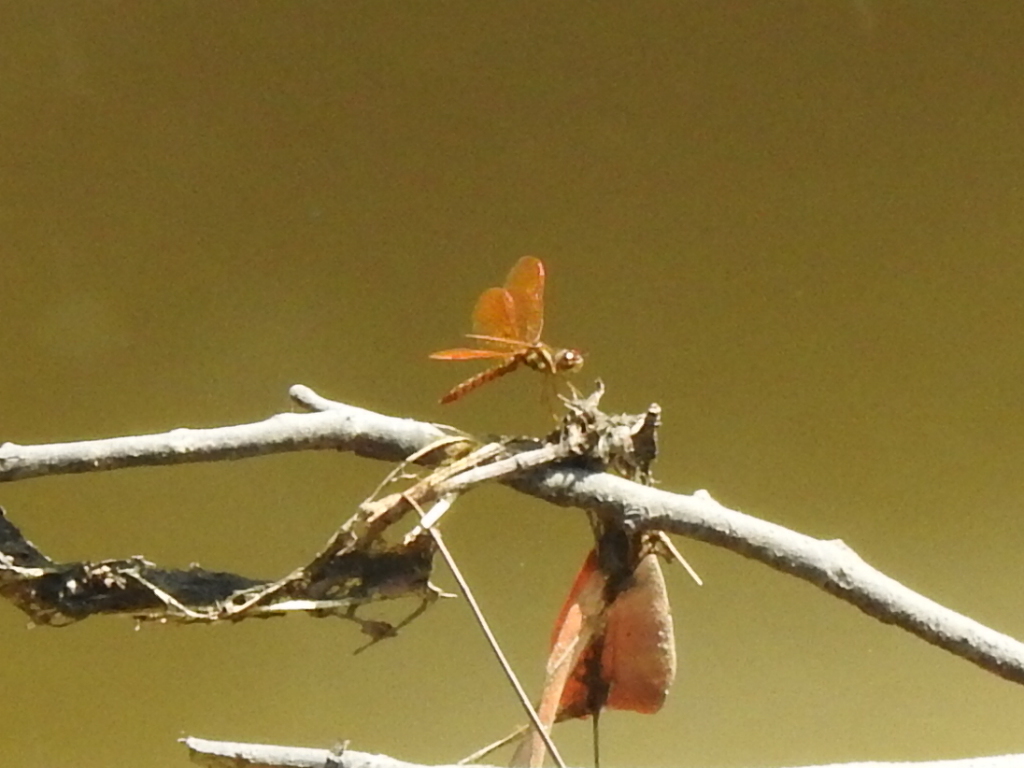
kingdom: Animalia
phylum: Arthropoda
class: Insecta
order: Odonata
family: Libellulidae
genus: Perithemis
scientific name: Perithemis tenera
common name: Eastern amberwing
